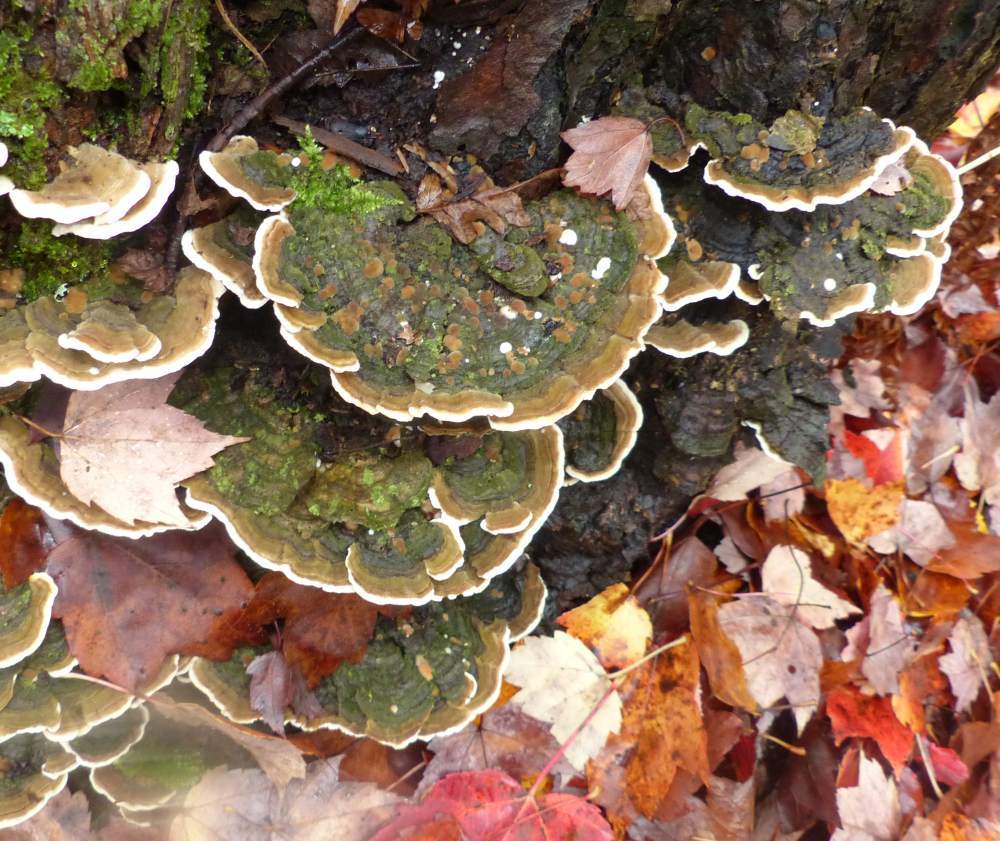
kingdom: Fungi
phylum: Basidiomycota
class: Agaricomycetes
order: Polyporales
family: Cerrenaceae
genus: Cerrena
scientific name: Cerrena unicolor
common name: Mossy maze polypore
